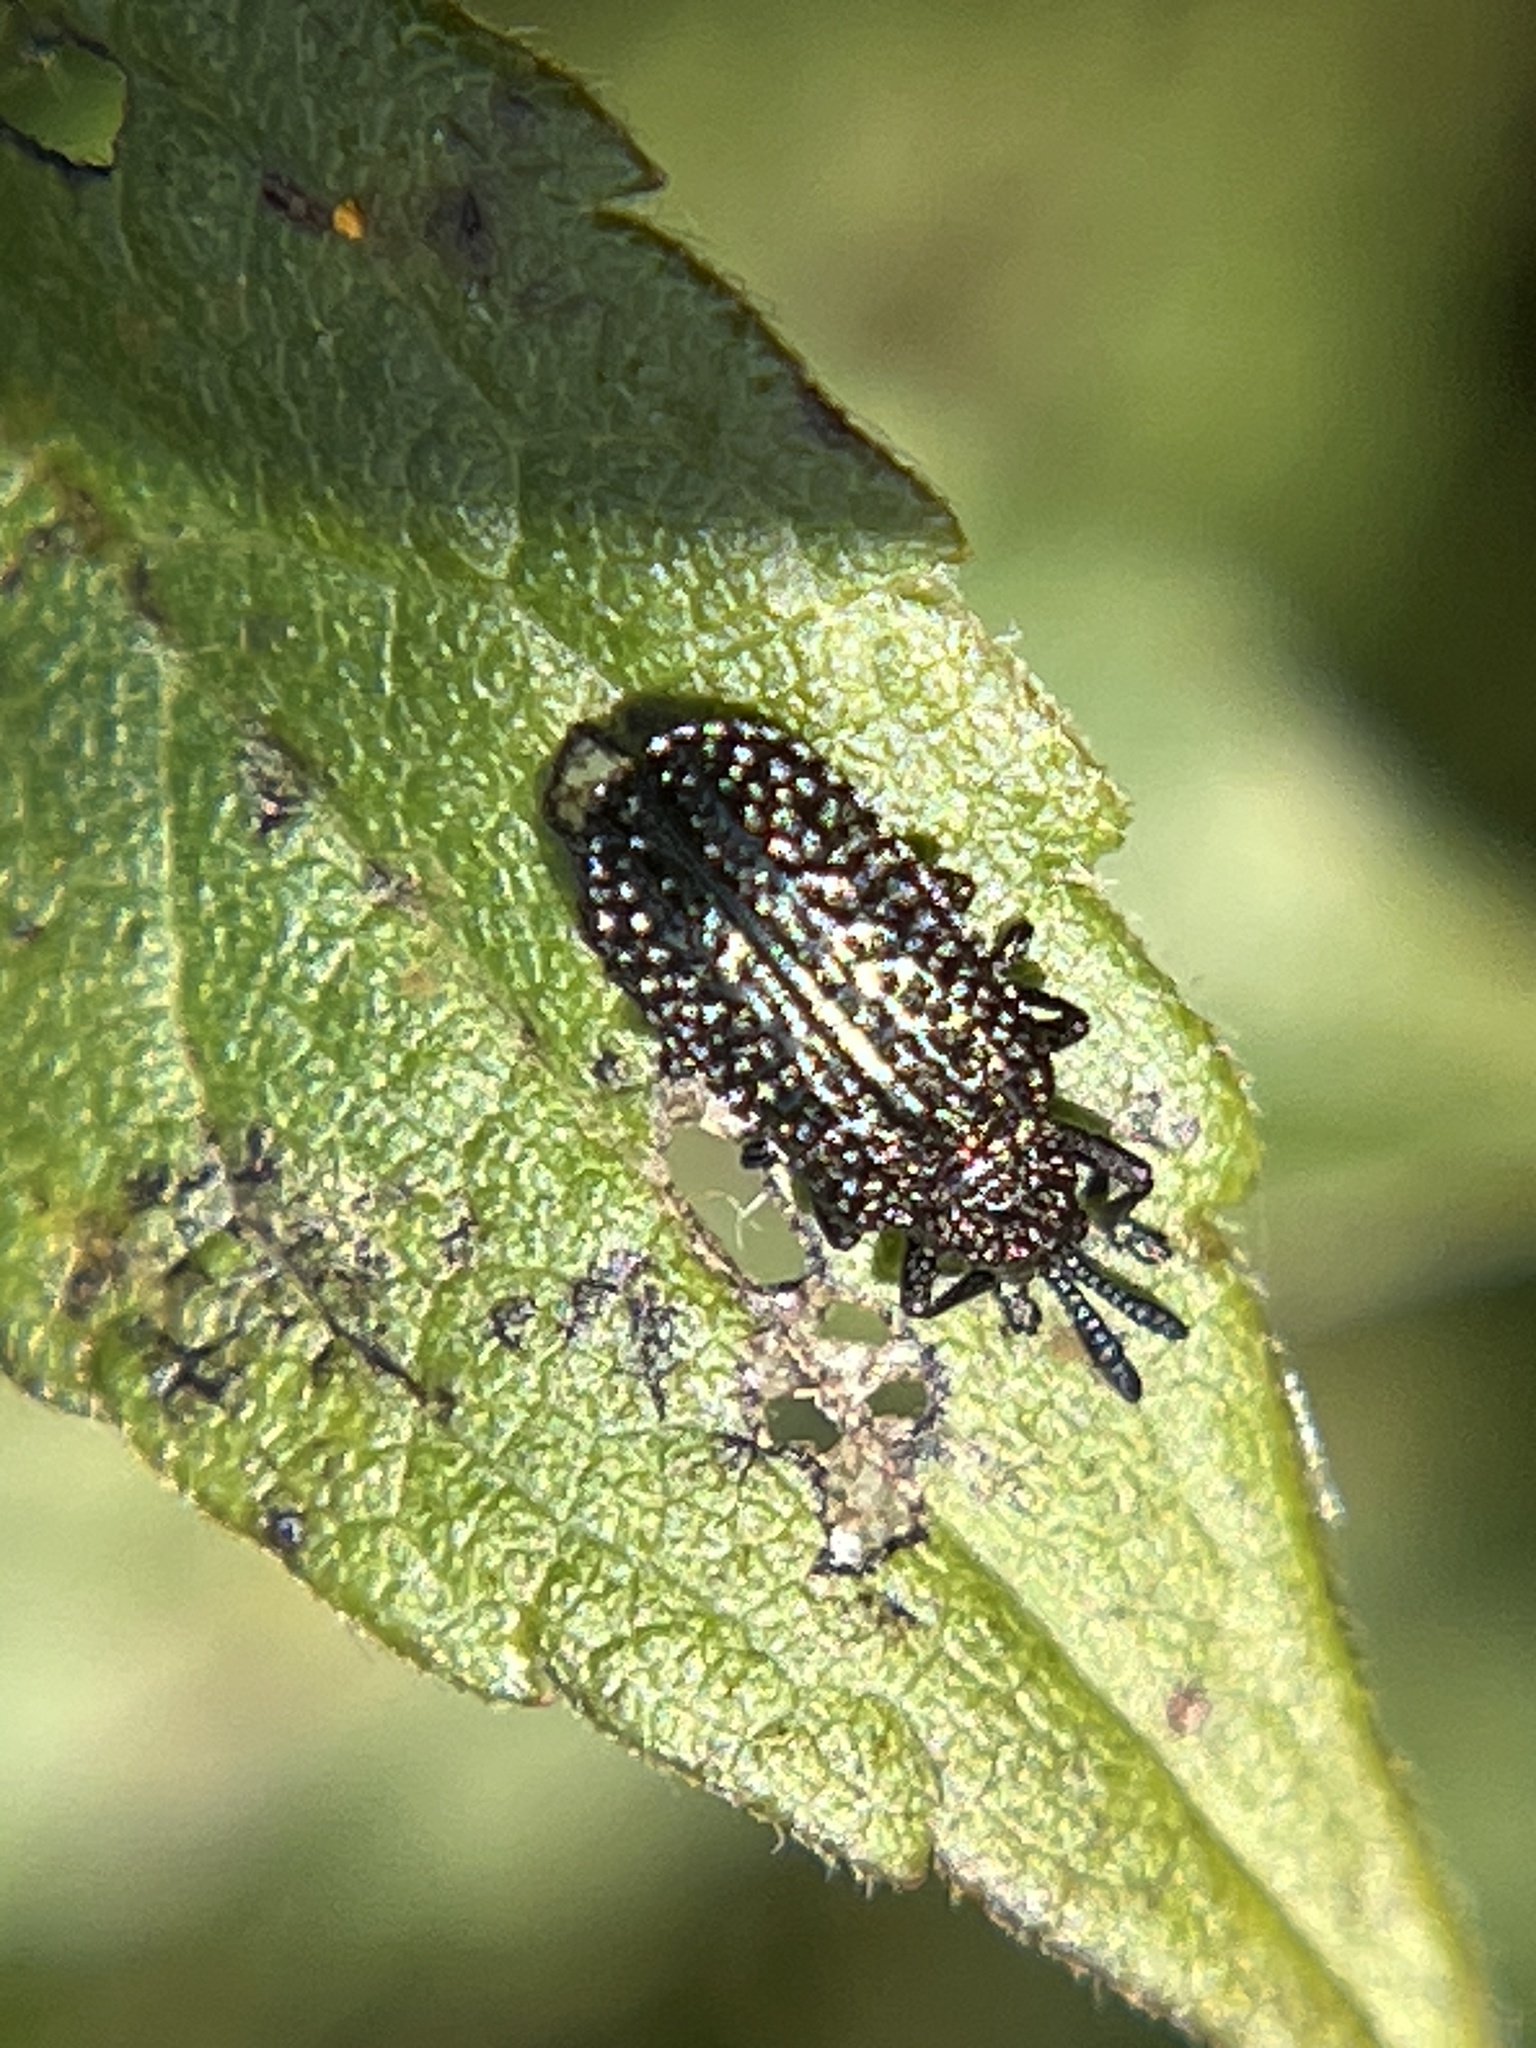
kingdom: Animalia
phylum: Arthropoda
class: Insecta
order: Coleoptera
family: Chrysomelidae
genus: Microrhopala
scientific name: Microrhopala excavata
